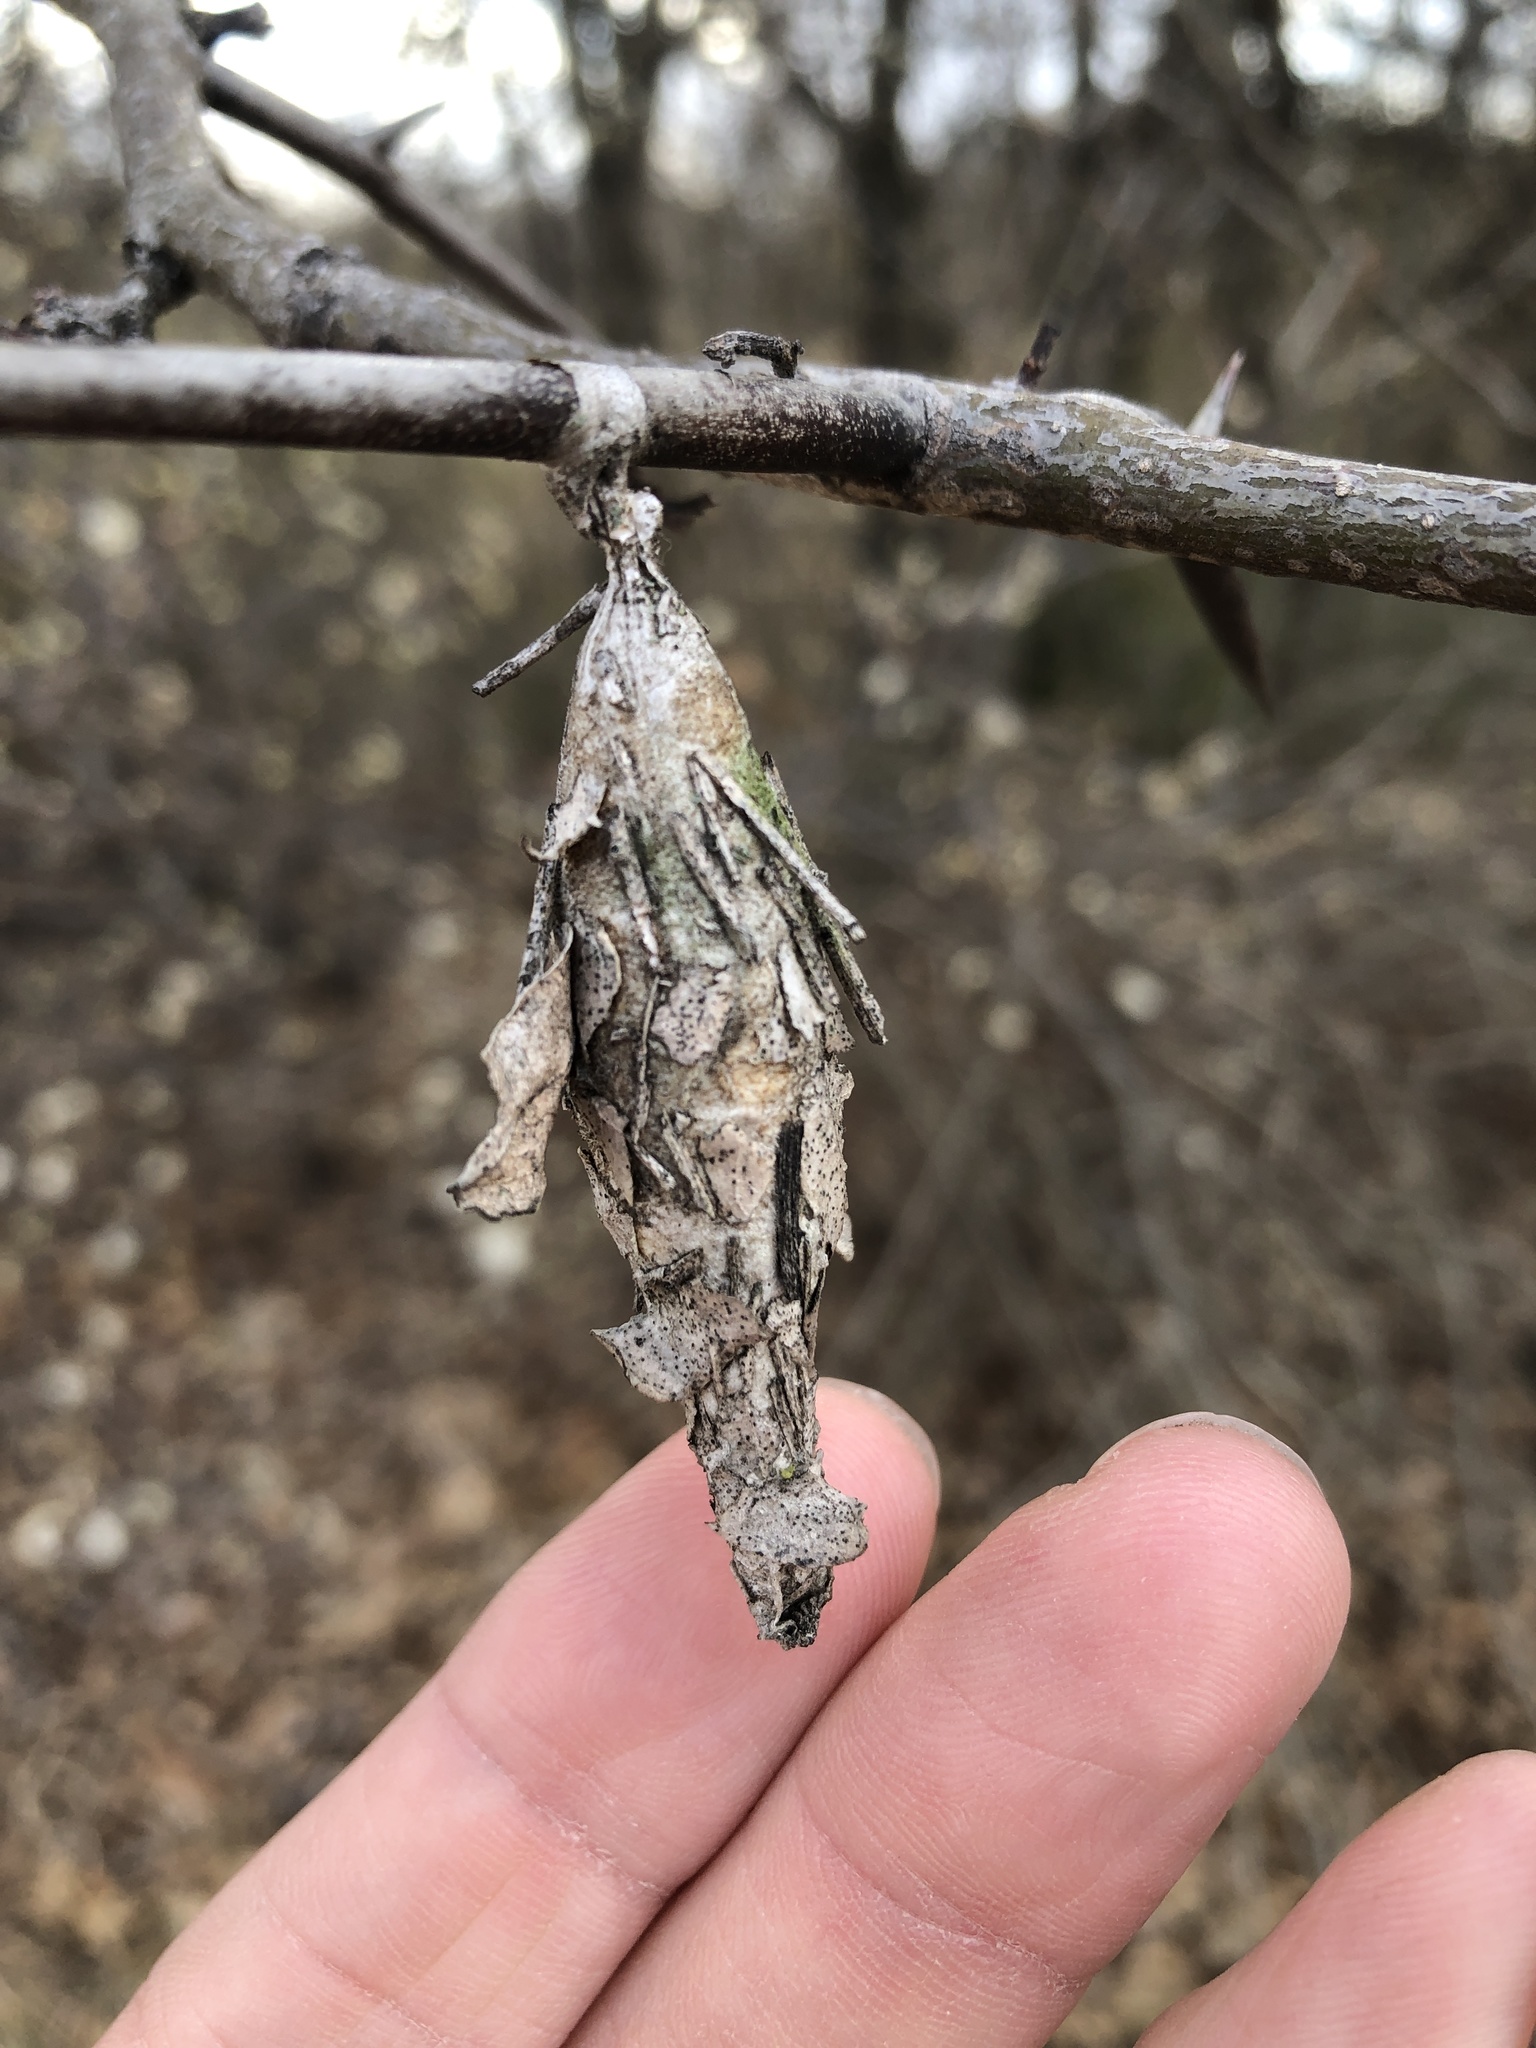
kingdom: Animalia
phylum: Arthropoda
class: Insecta
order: Lepidoptera
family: Psychidae
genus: Thyridopteryx
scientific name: Thyridopteryx ephemeraeformis
